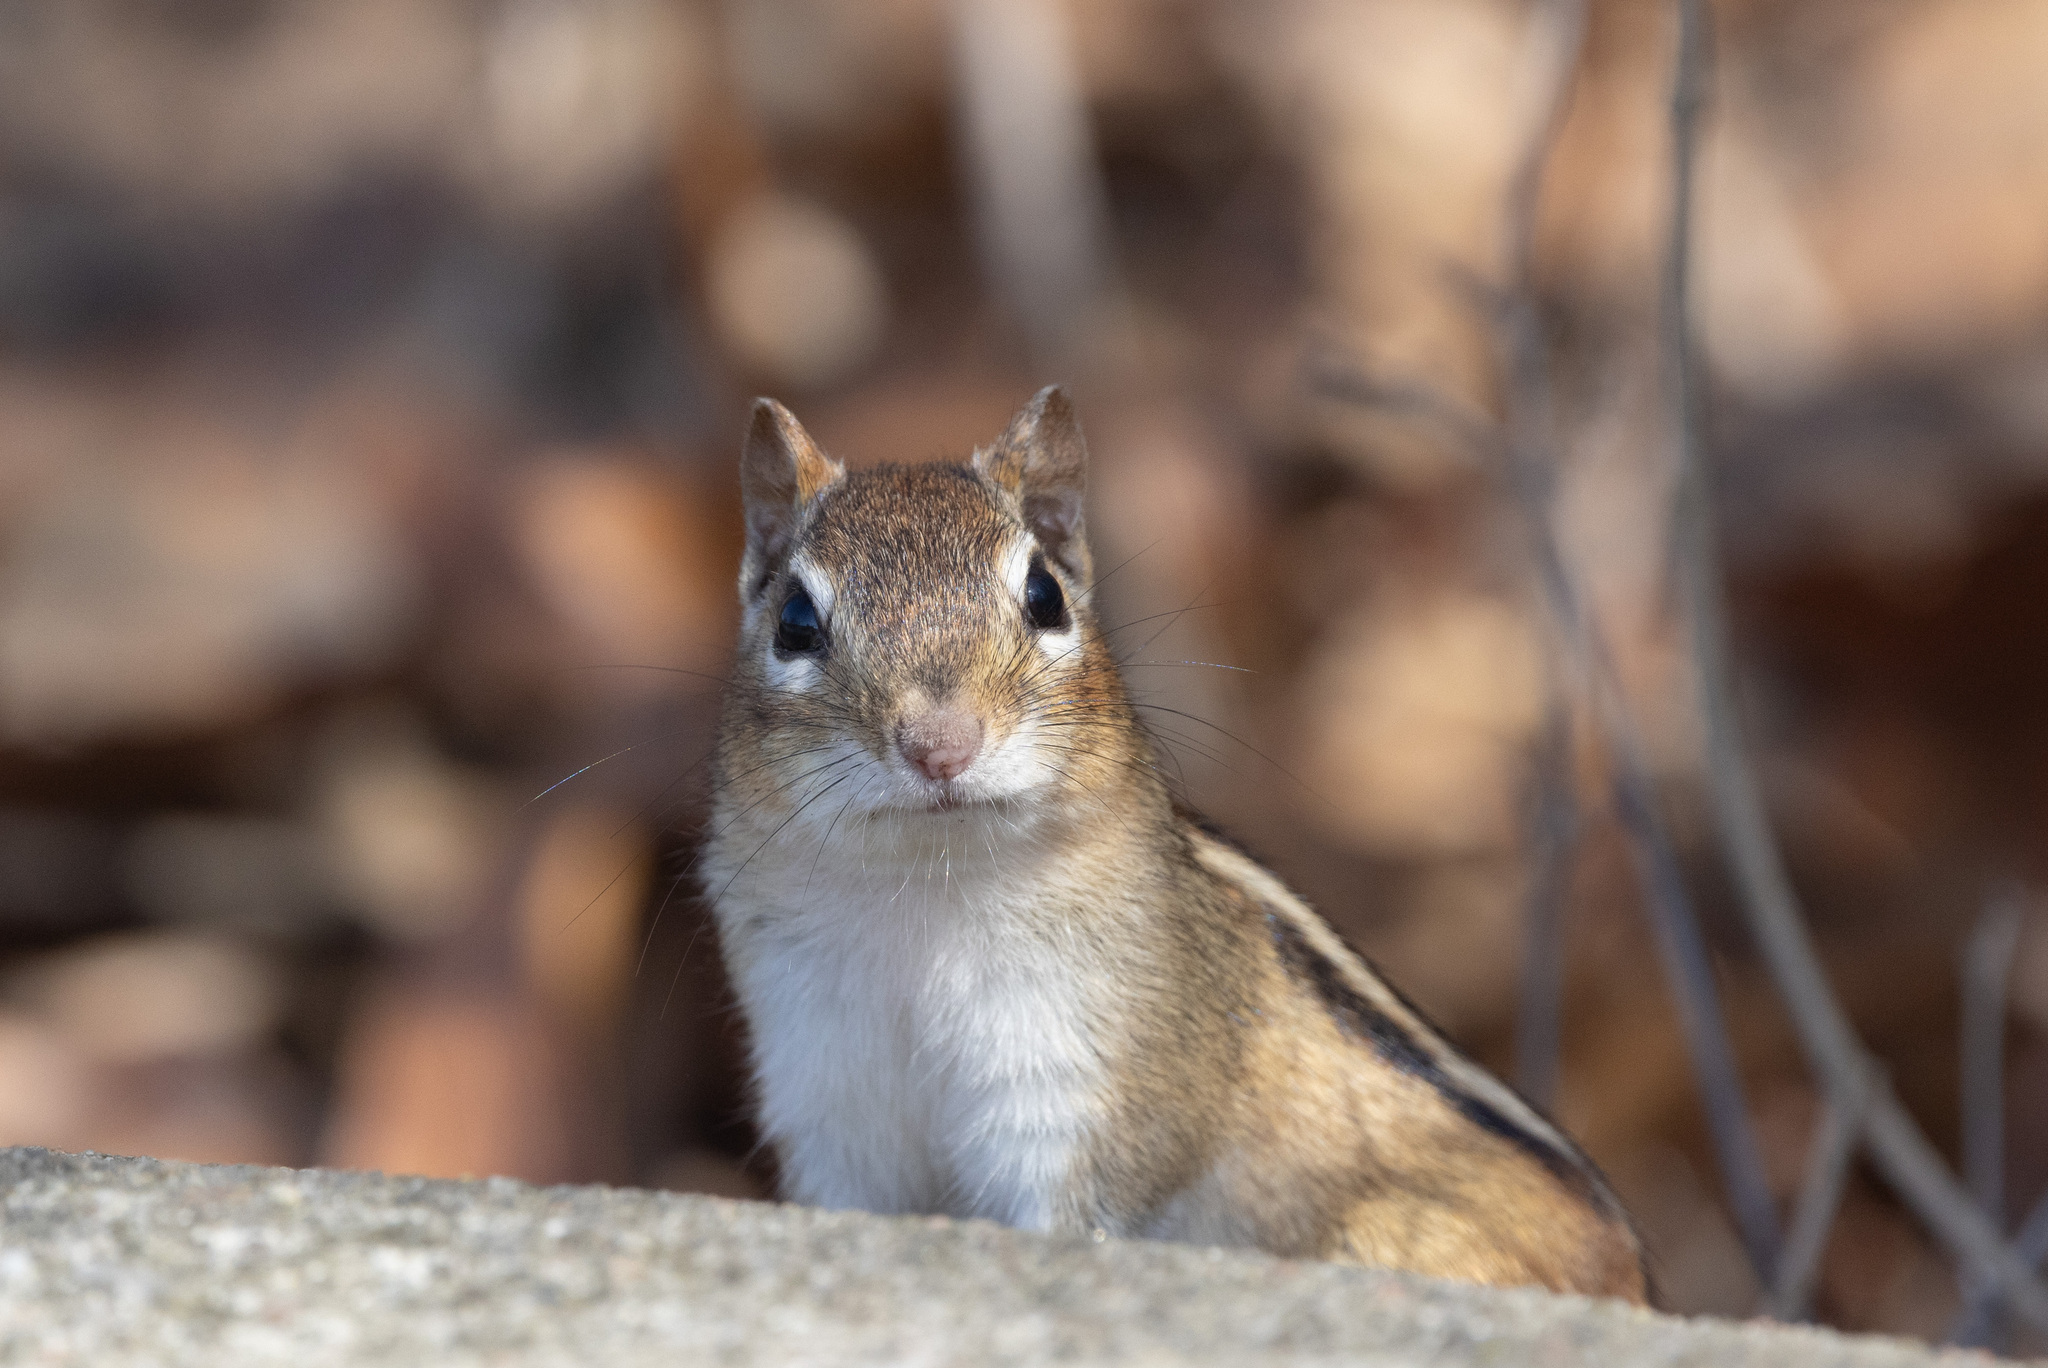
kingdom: Animalia
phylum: Chordata
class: Mammalia
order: Rodentia
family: Sciuridae
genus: Tamias
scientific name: Tamias striatus
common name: Eastern chipmunk
